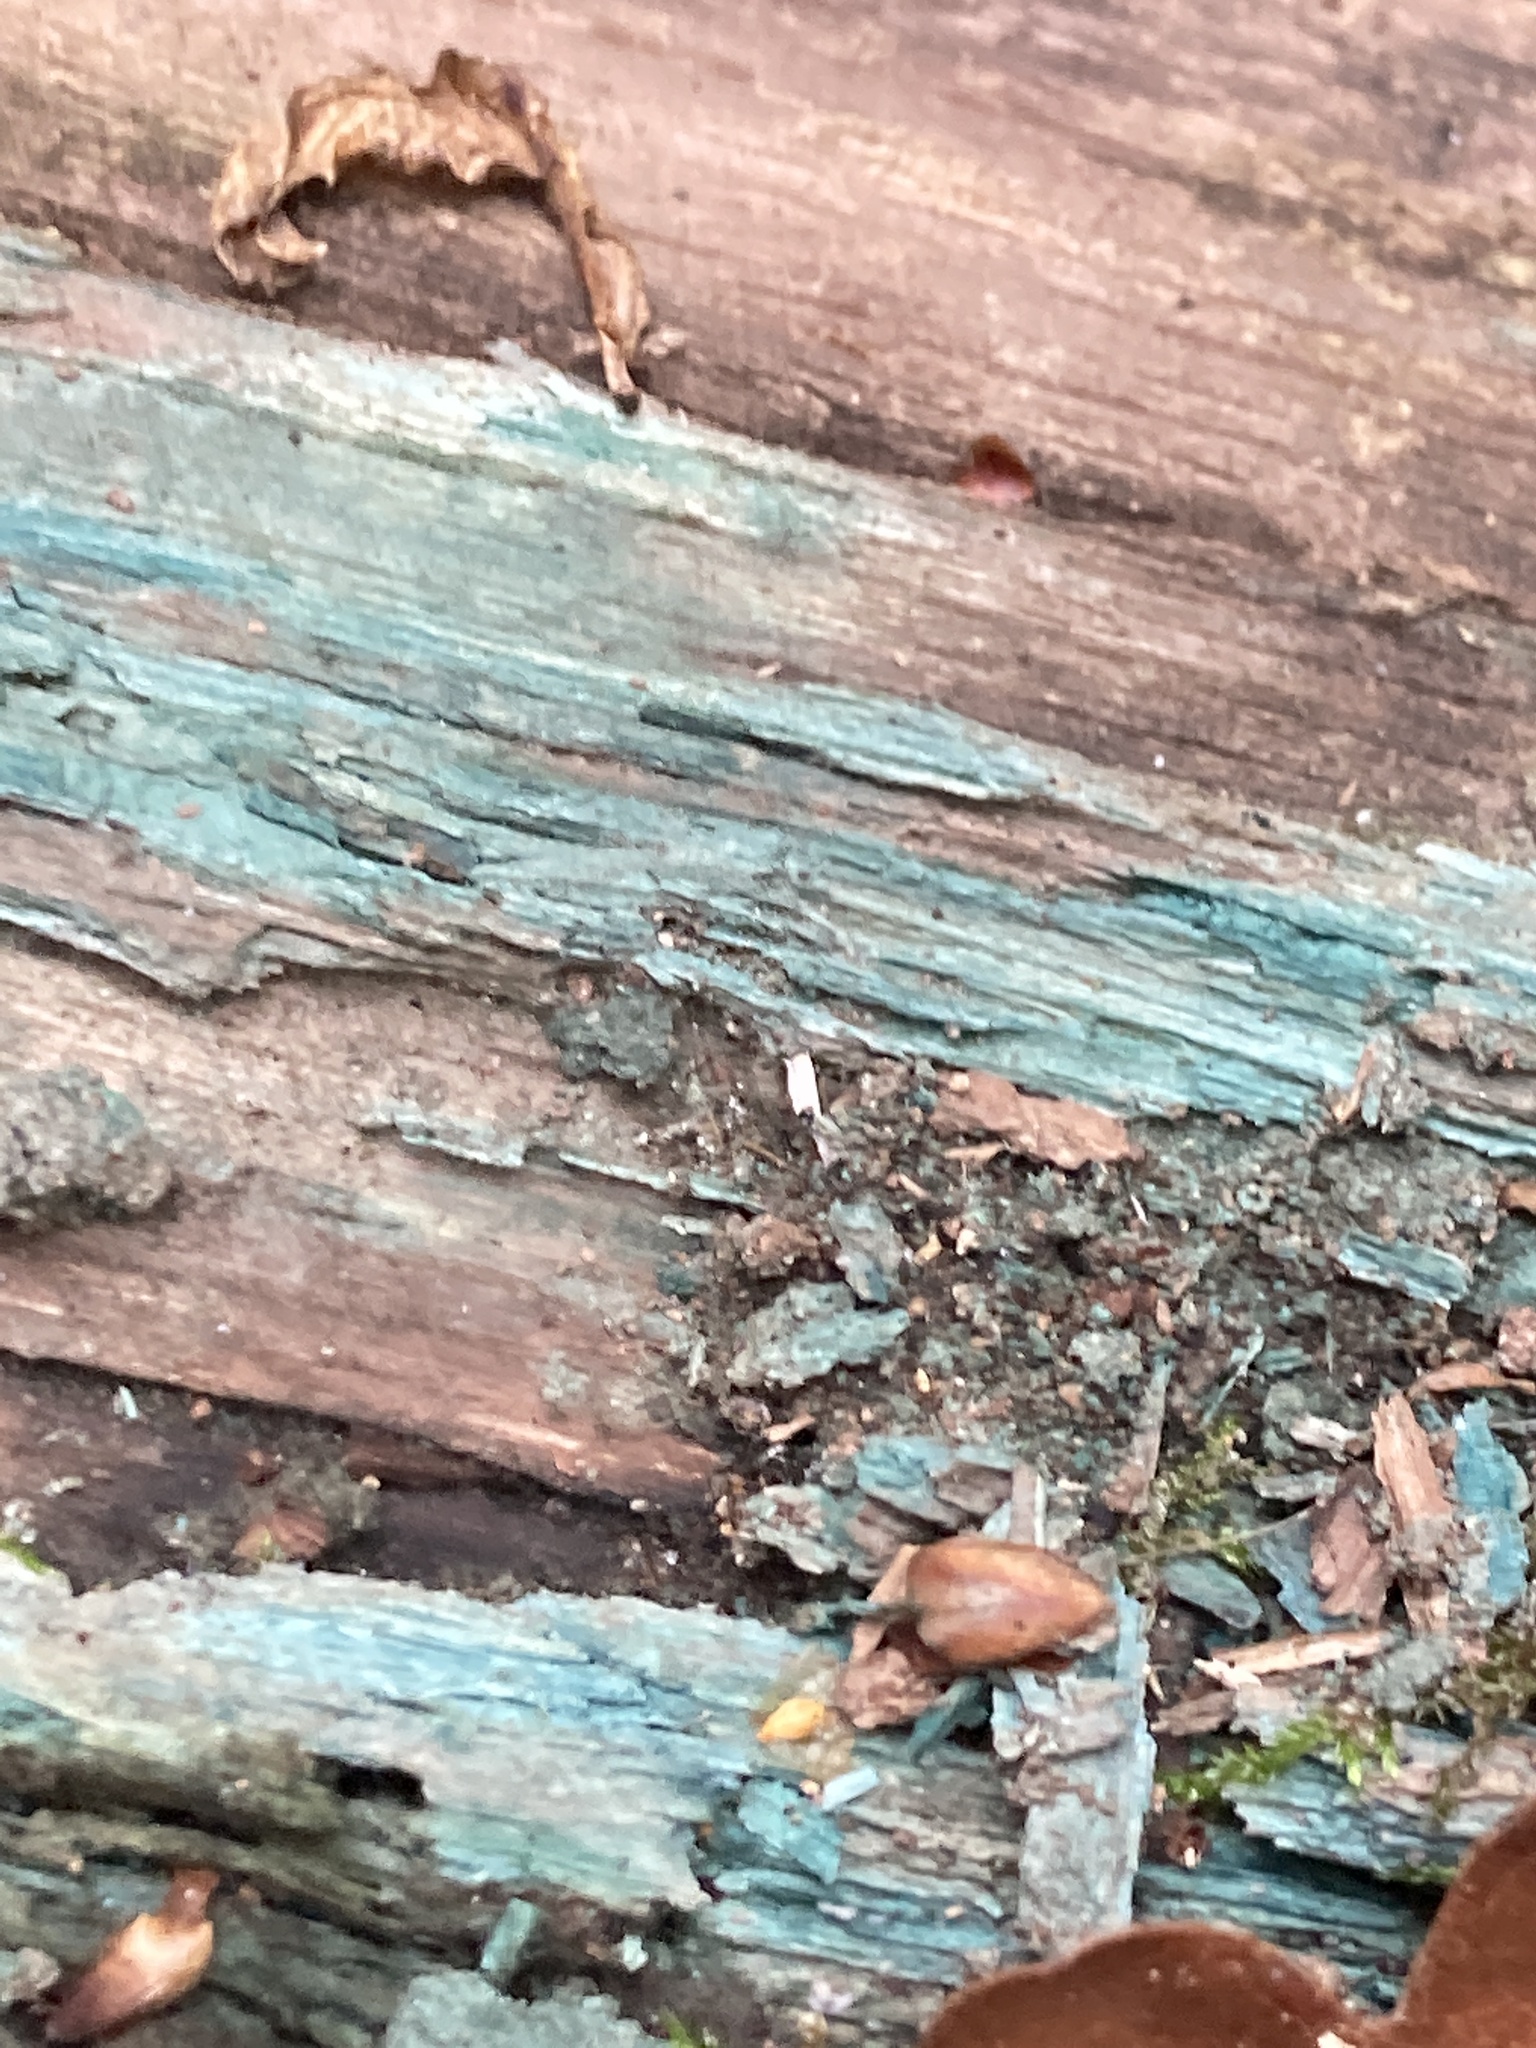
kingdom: Fungi
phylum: Ascomycota
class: Leotiomycetes
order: Helotiales
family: Chlorociboriaceae
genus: Chlorociboria
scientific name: Chlorociboria aeruginascens
